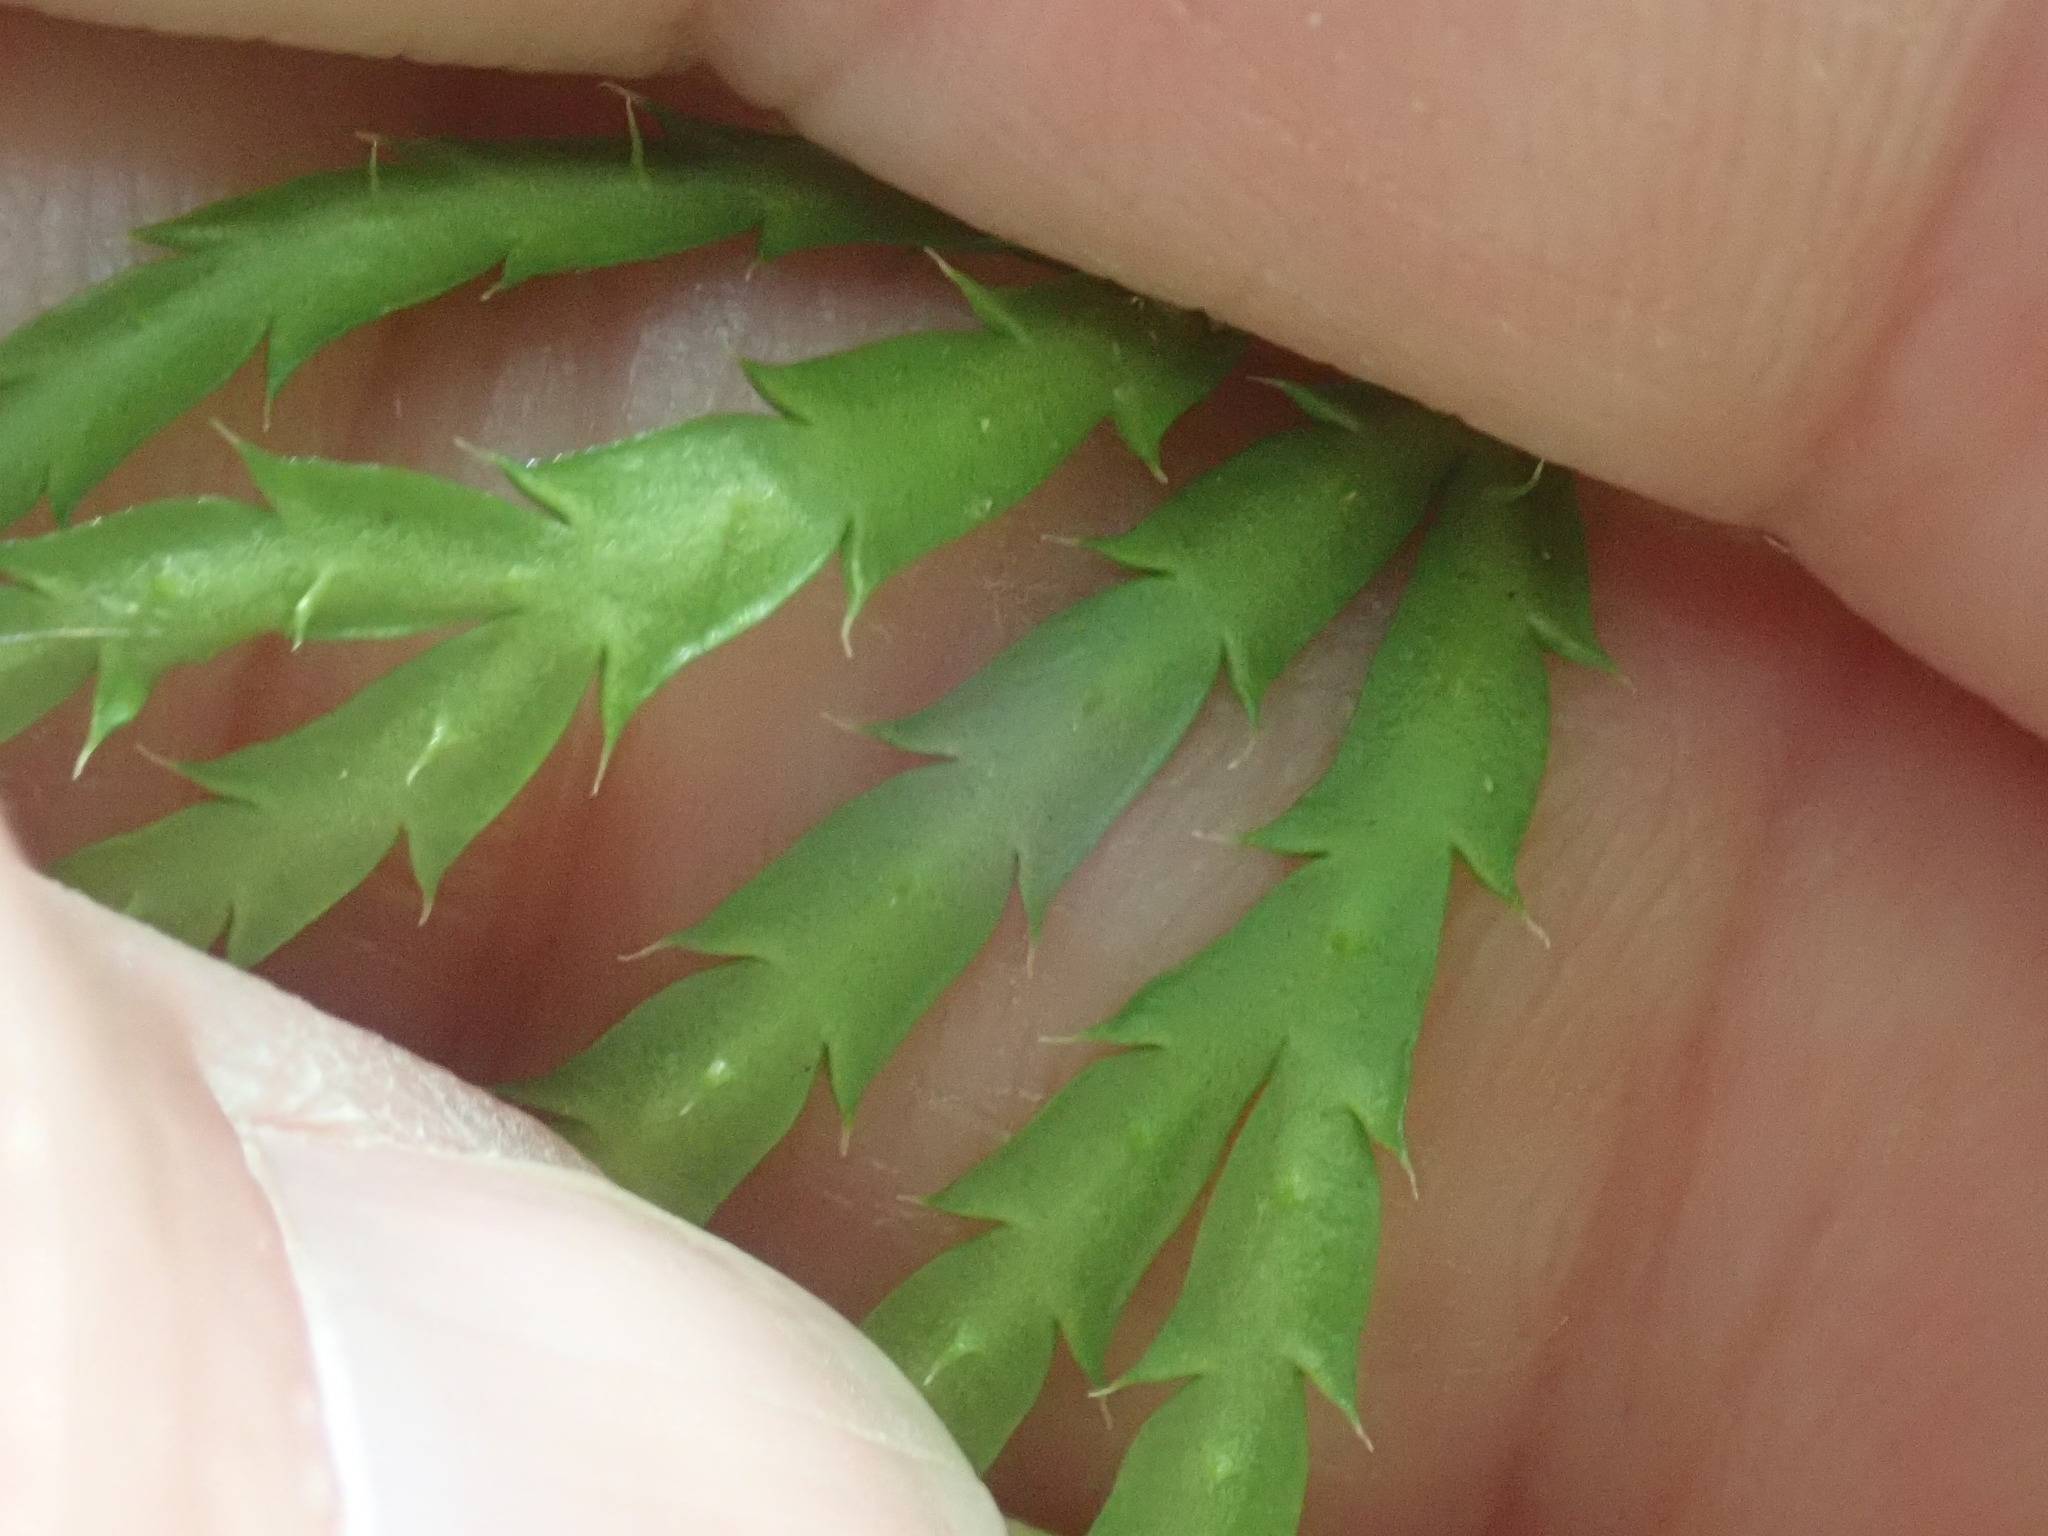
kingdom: Plantae
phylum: Tracheophyta
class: Lycopodiopsida
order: Lycopodiales
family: Lycopodiaceae
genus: Diphasiastrum
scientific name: Diphasiastrum digitatum
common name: Southern running-pine
